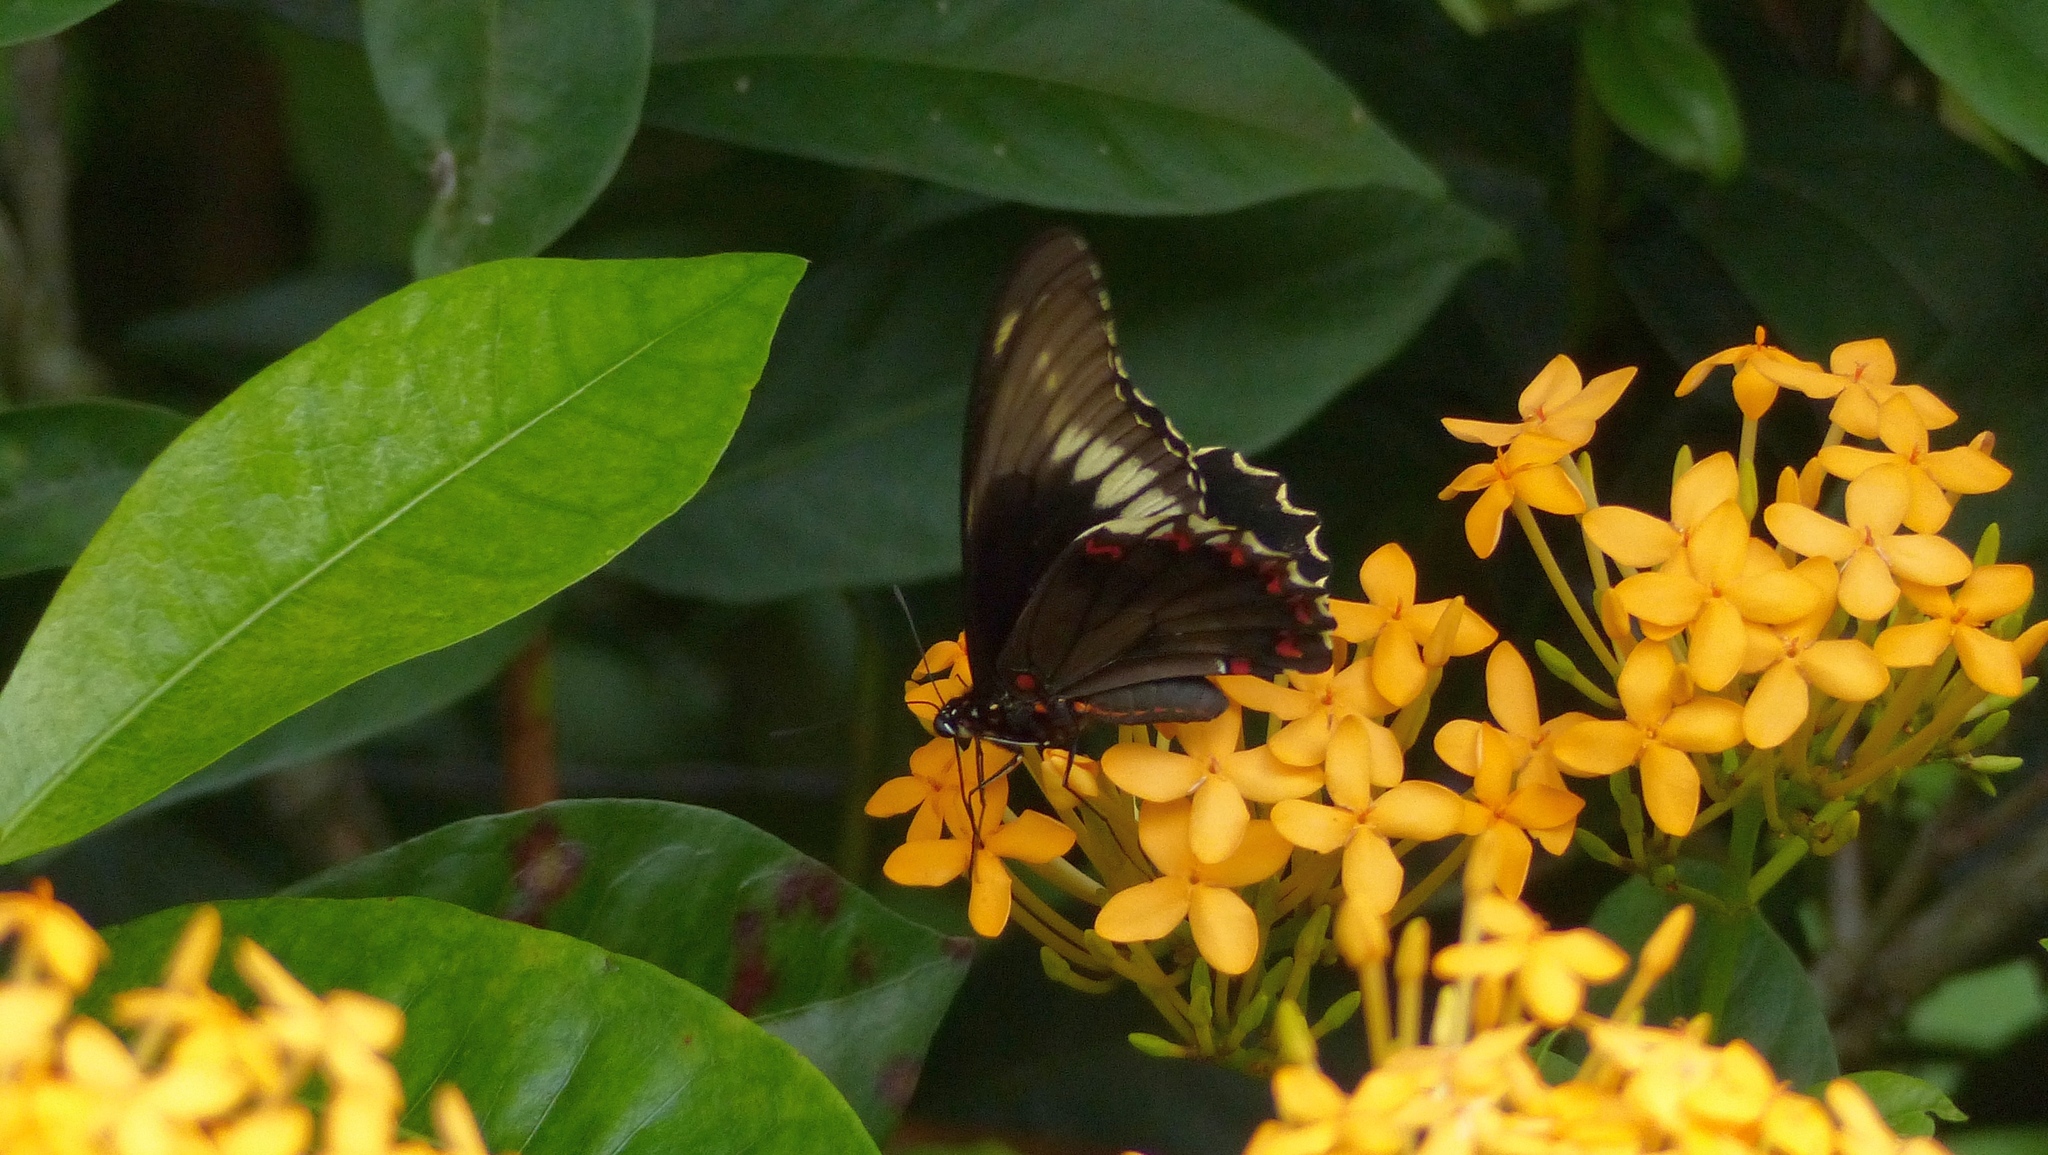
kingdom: Animalia
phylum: Arthropoda
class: Insecta
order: Lepidoptera
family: Papilionidae
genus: Battus
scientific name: Battus polydamas
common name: Polydamas swallowtail
